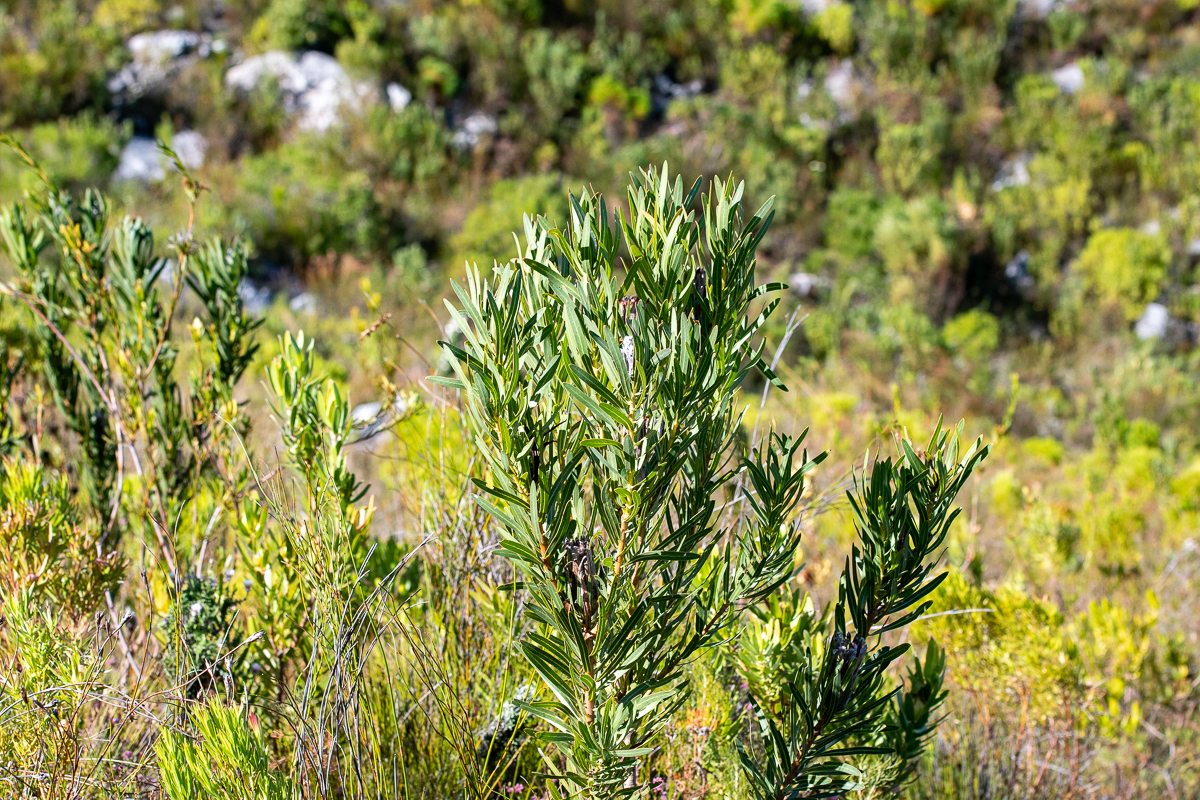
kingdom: Plantae
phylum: Tracheophyta
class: Magnoliopsida
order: Proteales
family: Proteaceae
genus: Protea
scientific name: Protea lepidocarpodendron
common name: Black-bearded protea
